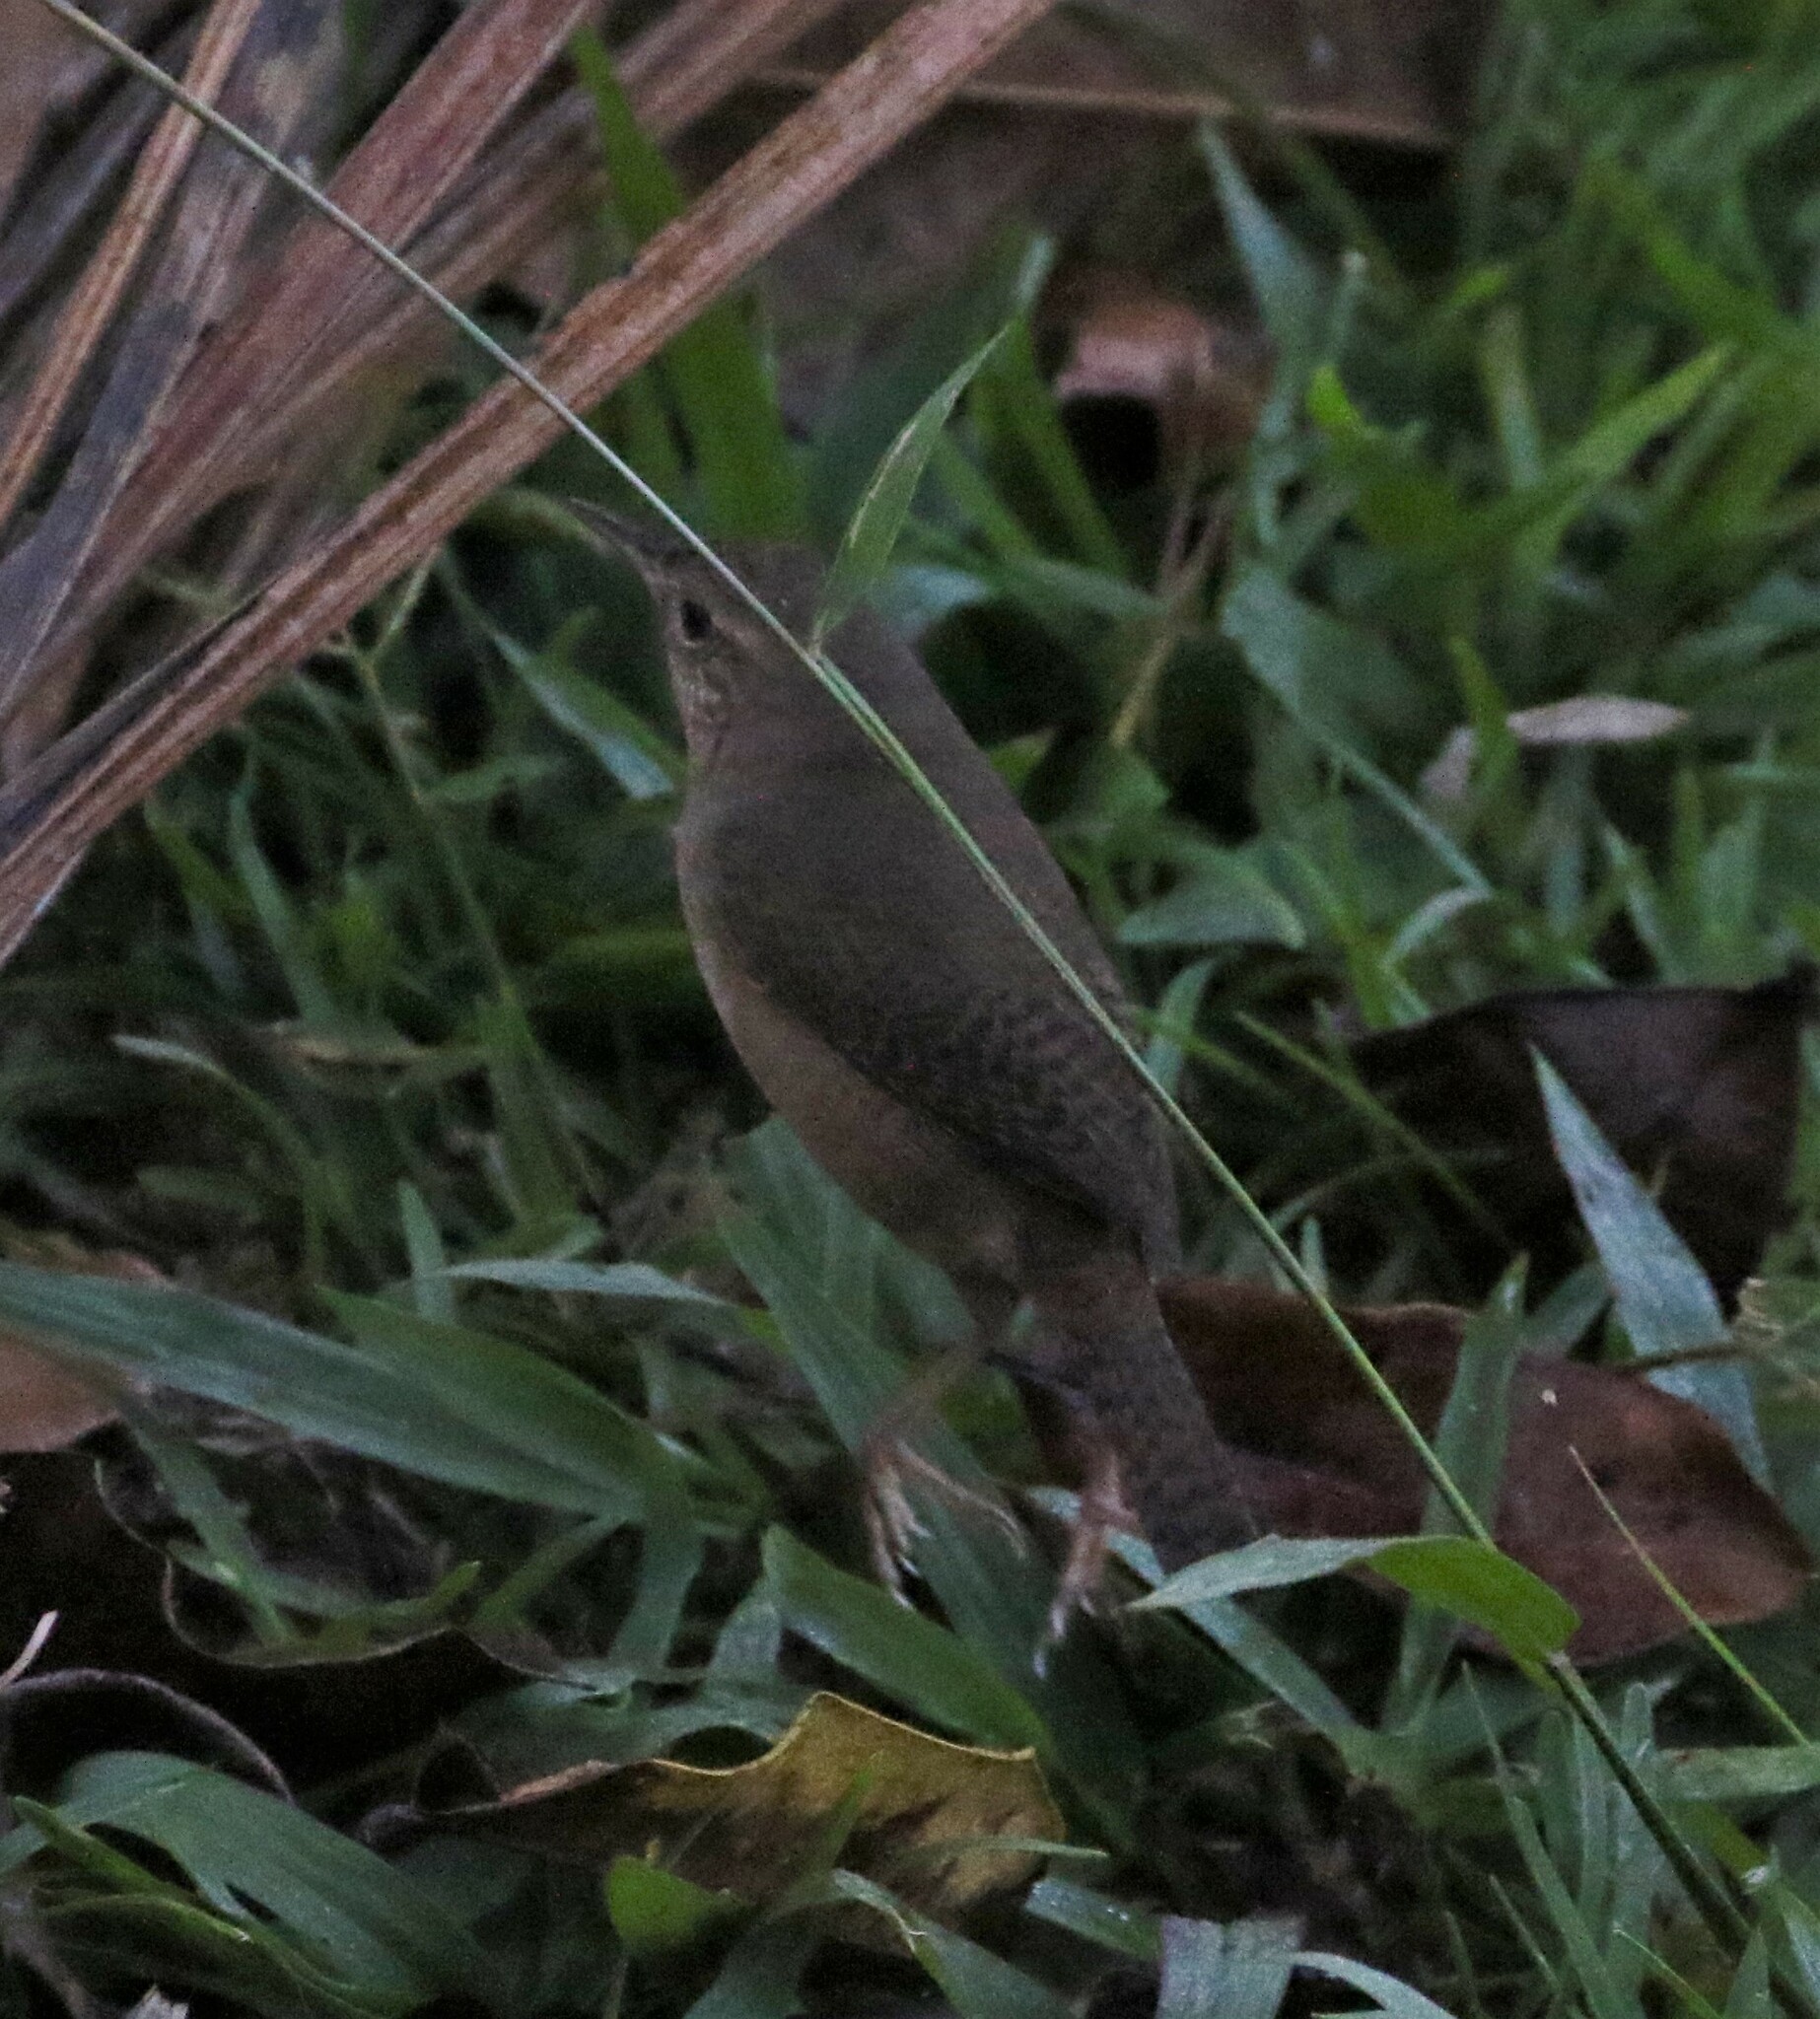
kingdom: Animalia
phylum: Chordata
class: Aves
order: Passeriformes
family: Troglodytidae
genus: Troglodytes
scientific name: Troglodytes aedon
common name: House wren
